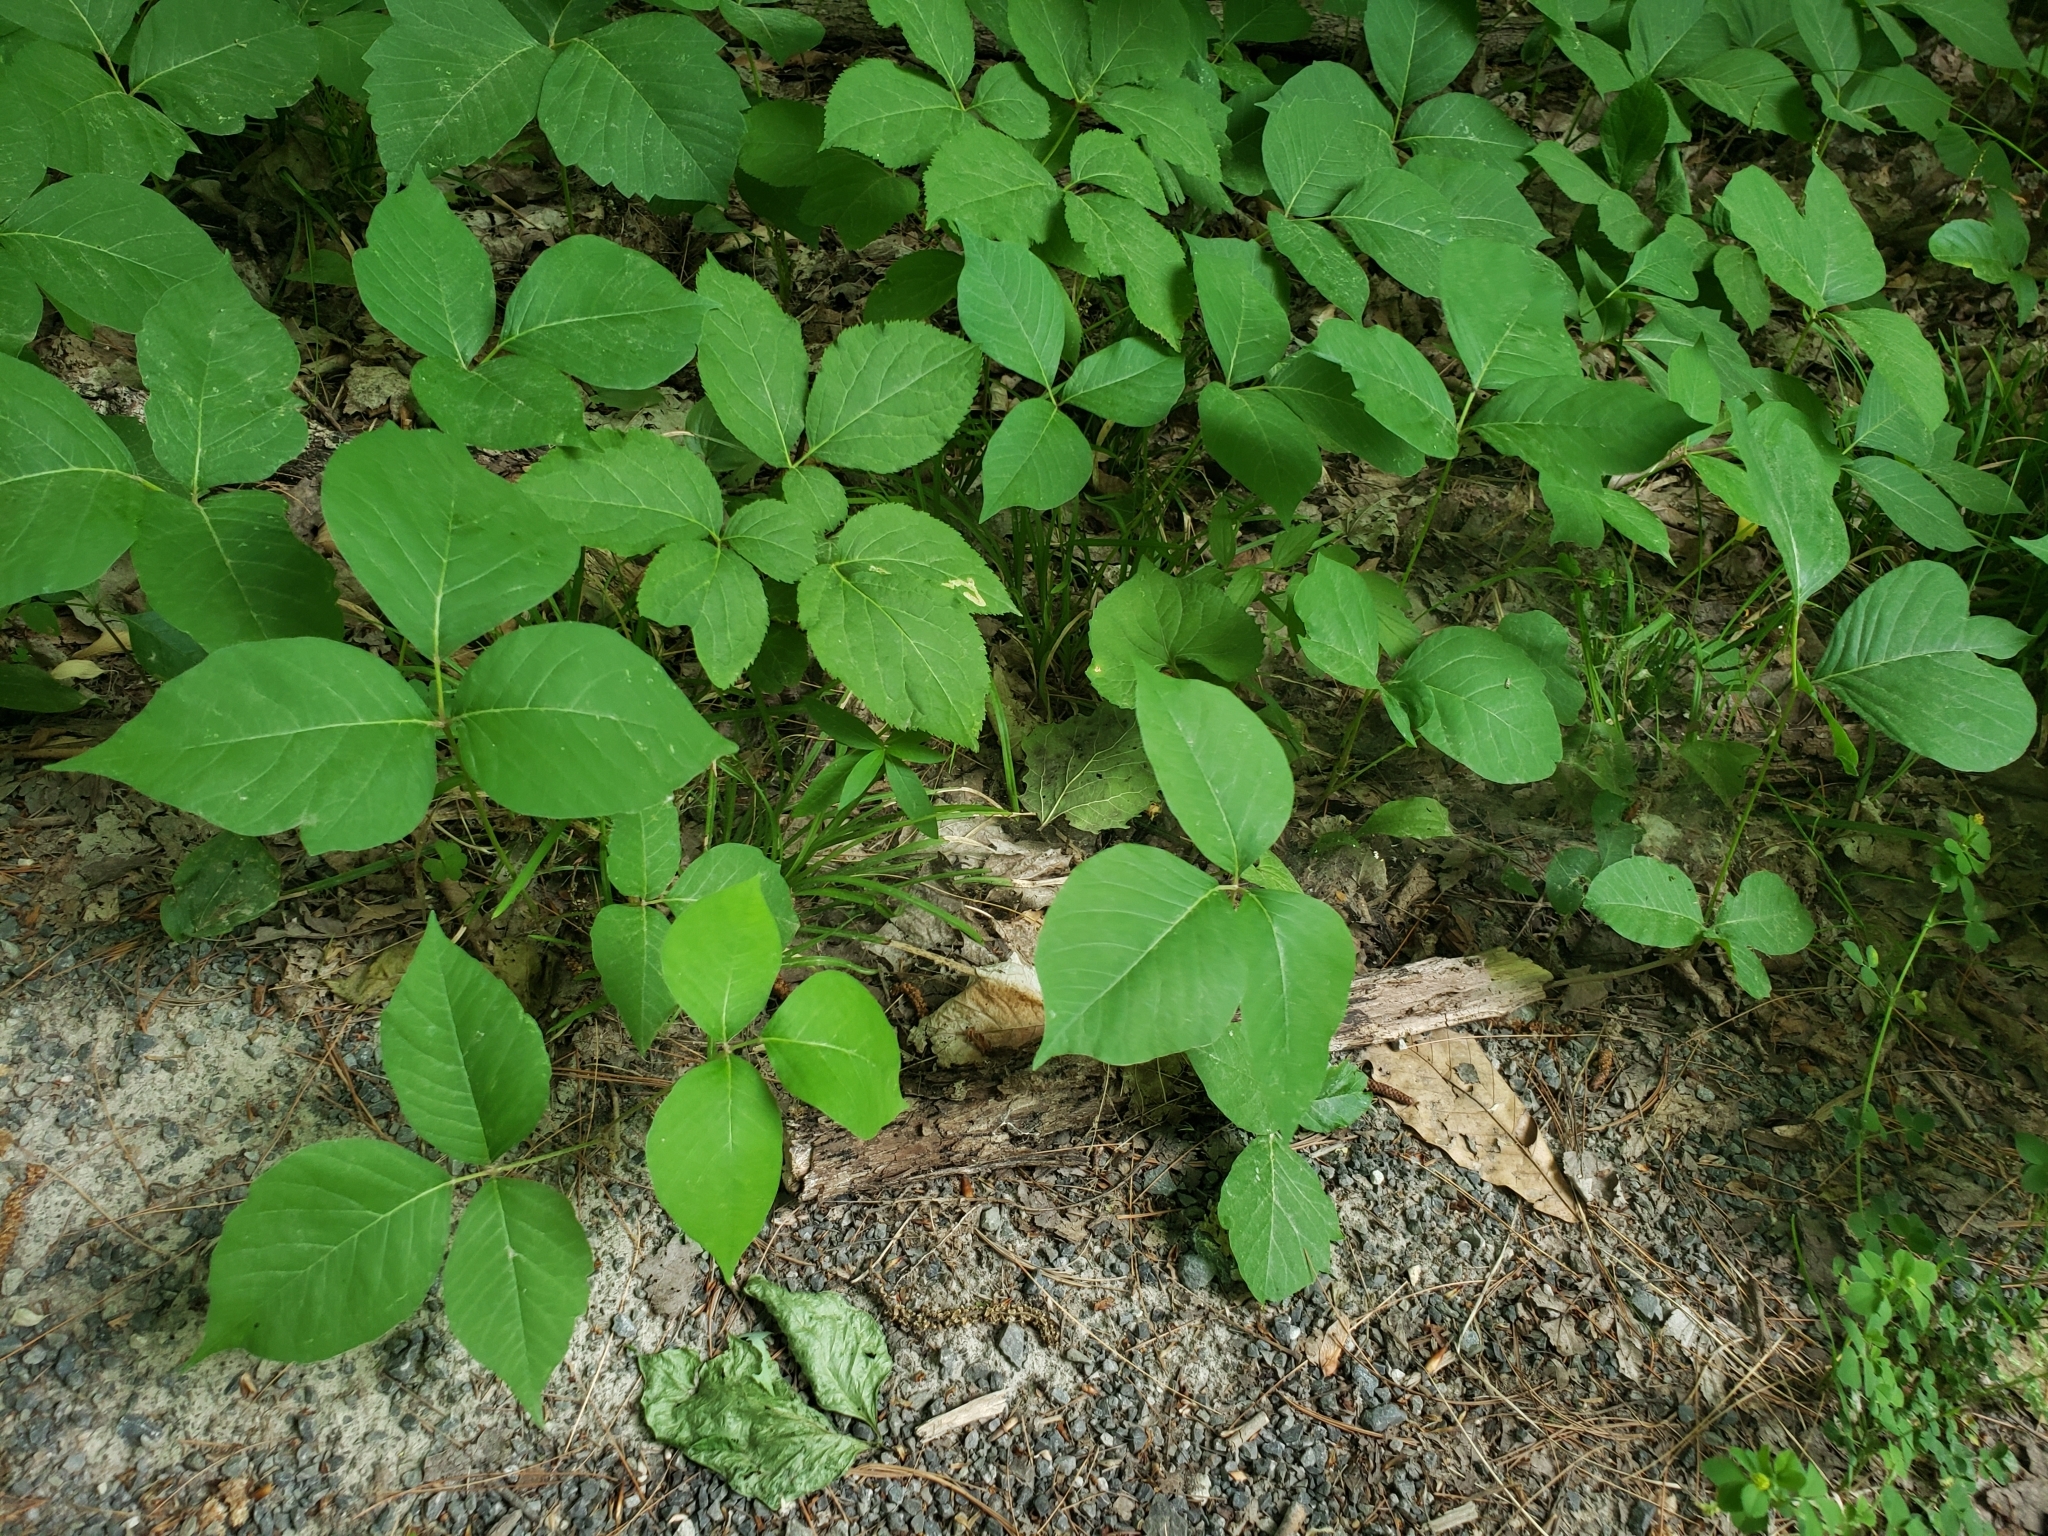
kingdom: Plantae
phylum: Tracheophyta
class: Magnoliopsida
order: Sapindales
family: Anacardiaceae
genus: Toxicodendron
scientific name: Toxicodendron radicans
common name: Poison ivy
